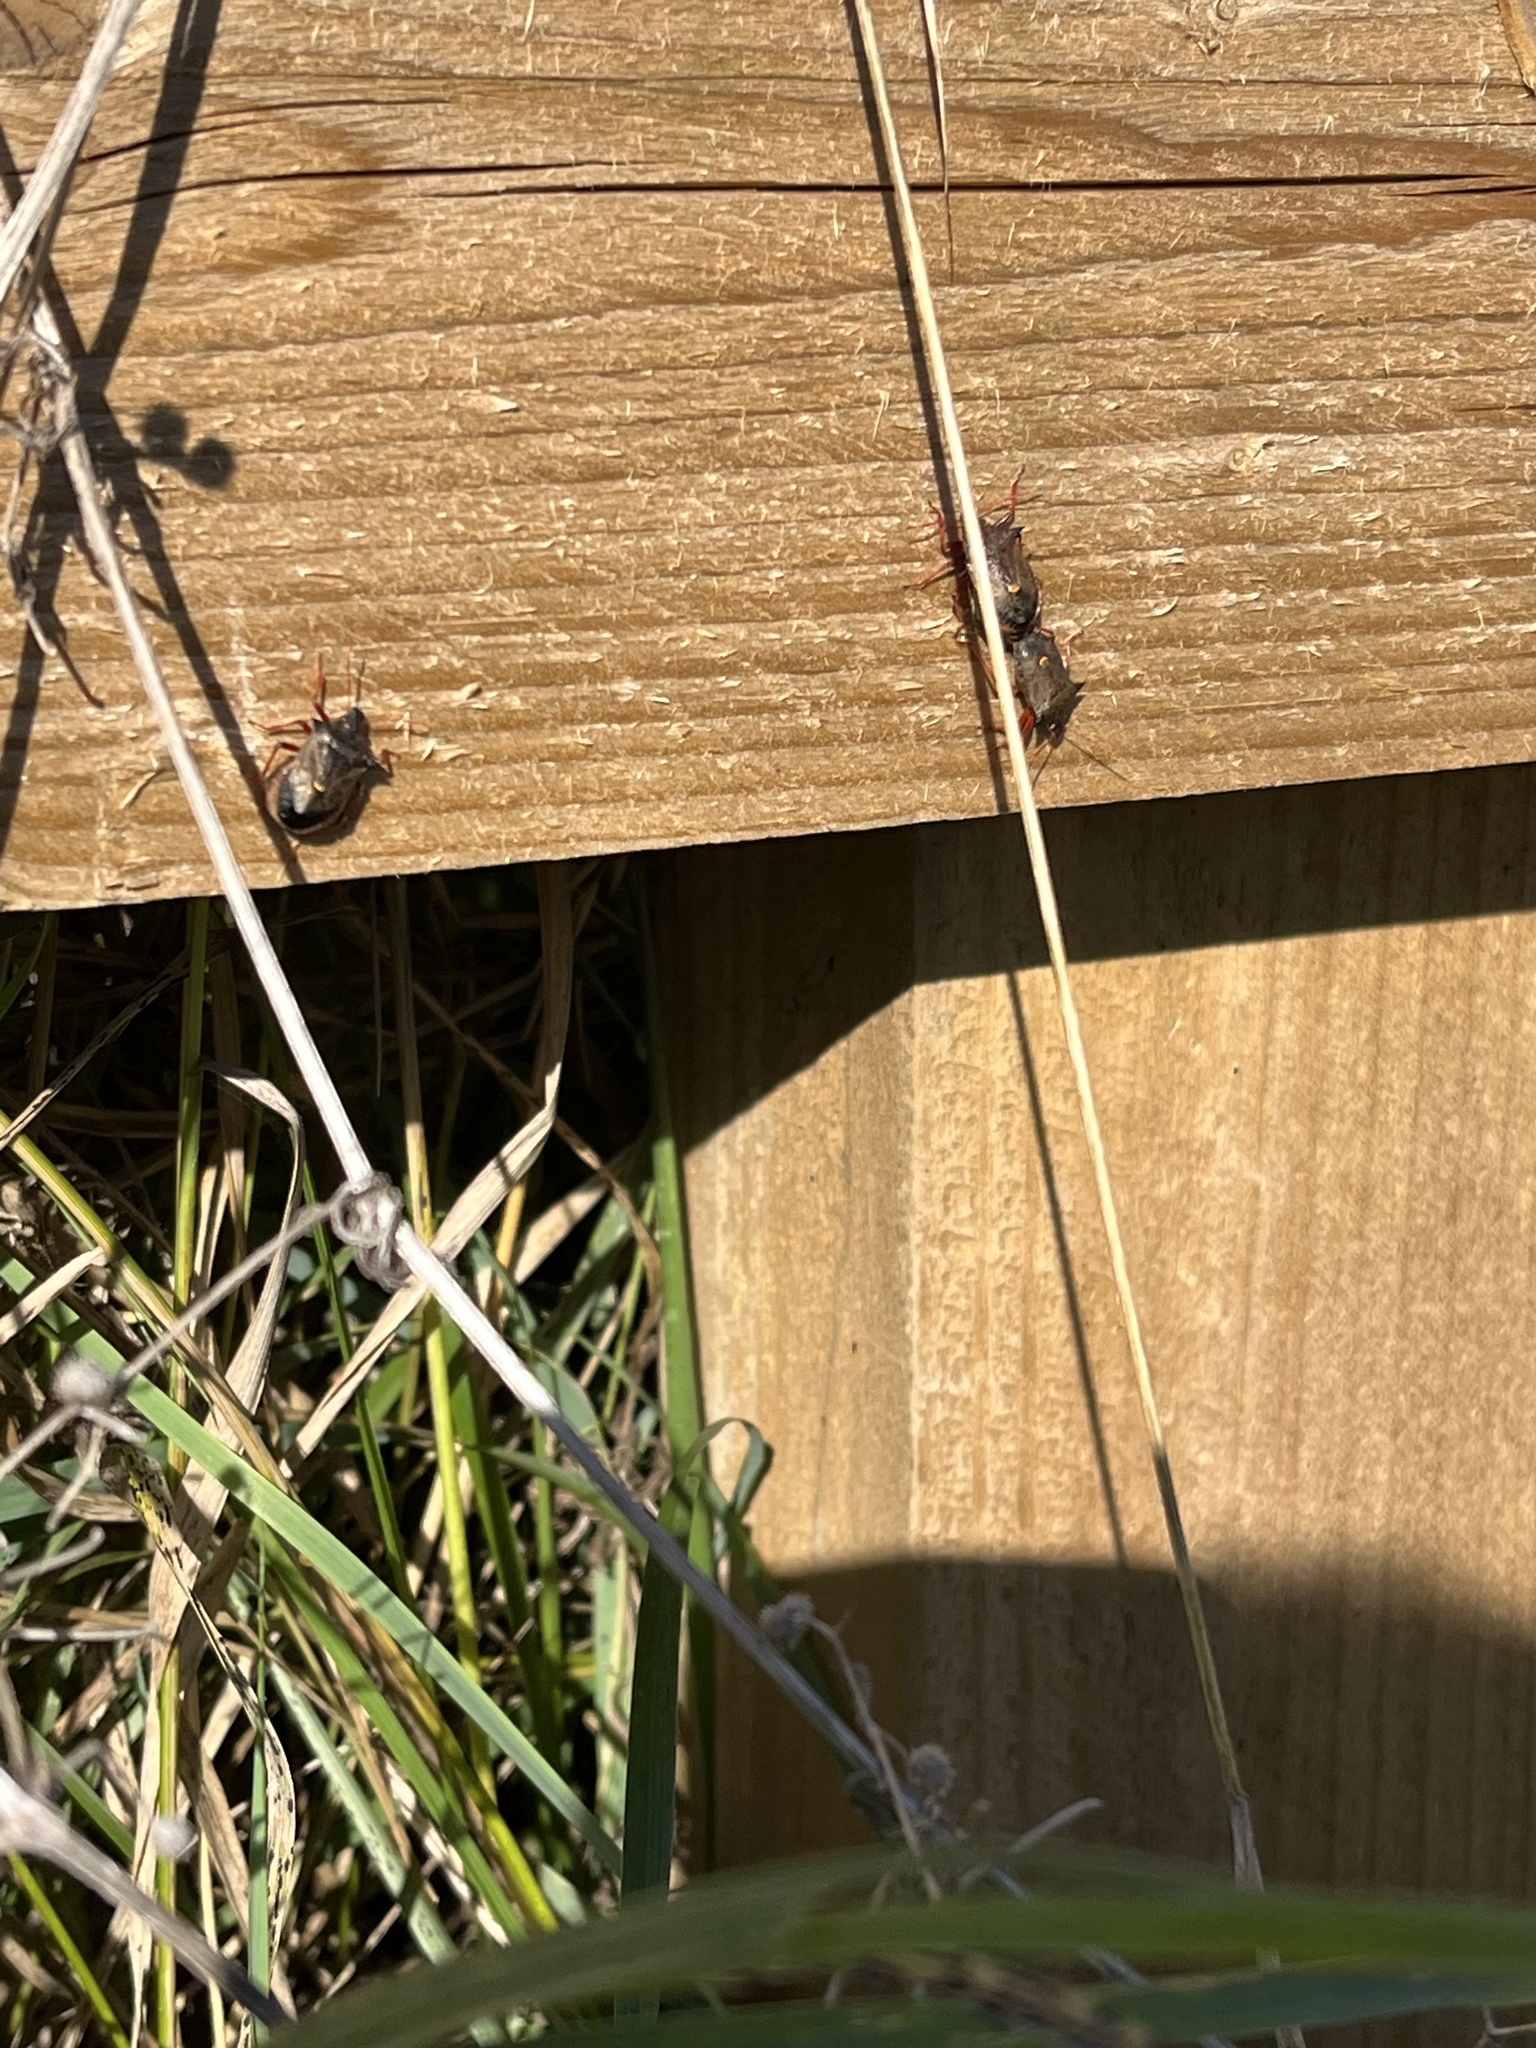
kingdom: Animalia
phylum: Arthropoda
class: Insecta
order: Hemiptera
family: Pentatomidae
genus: Picromerus
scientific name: Picromerus bidens
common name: Spiked shieldbug
